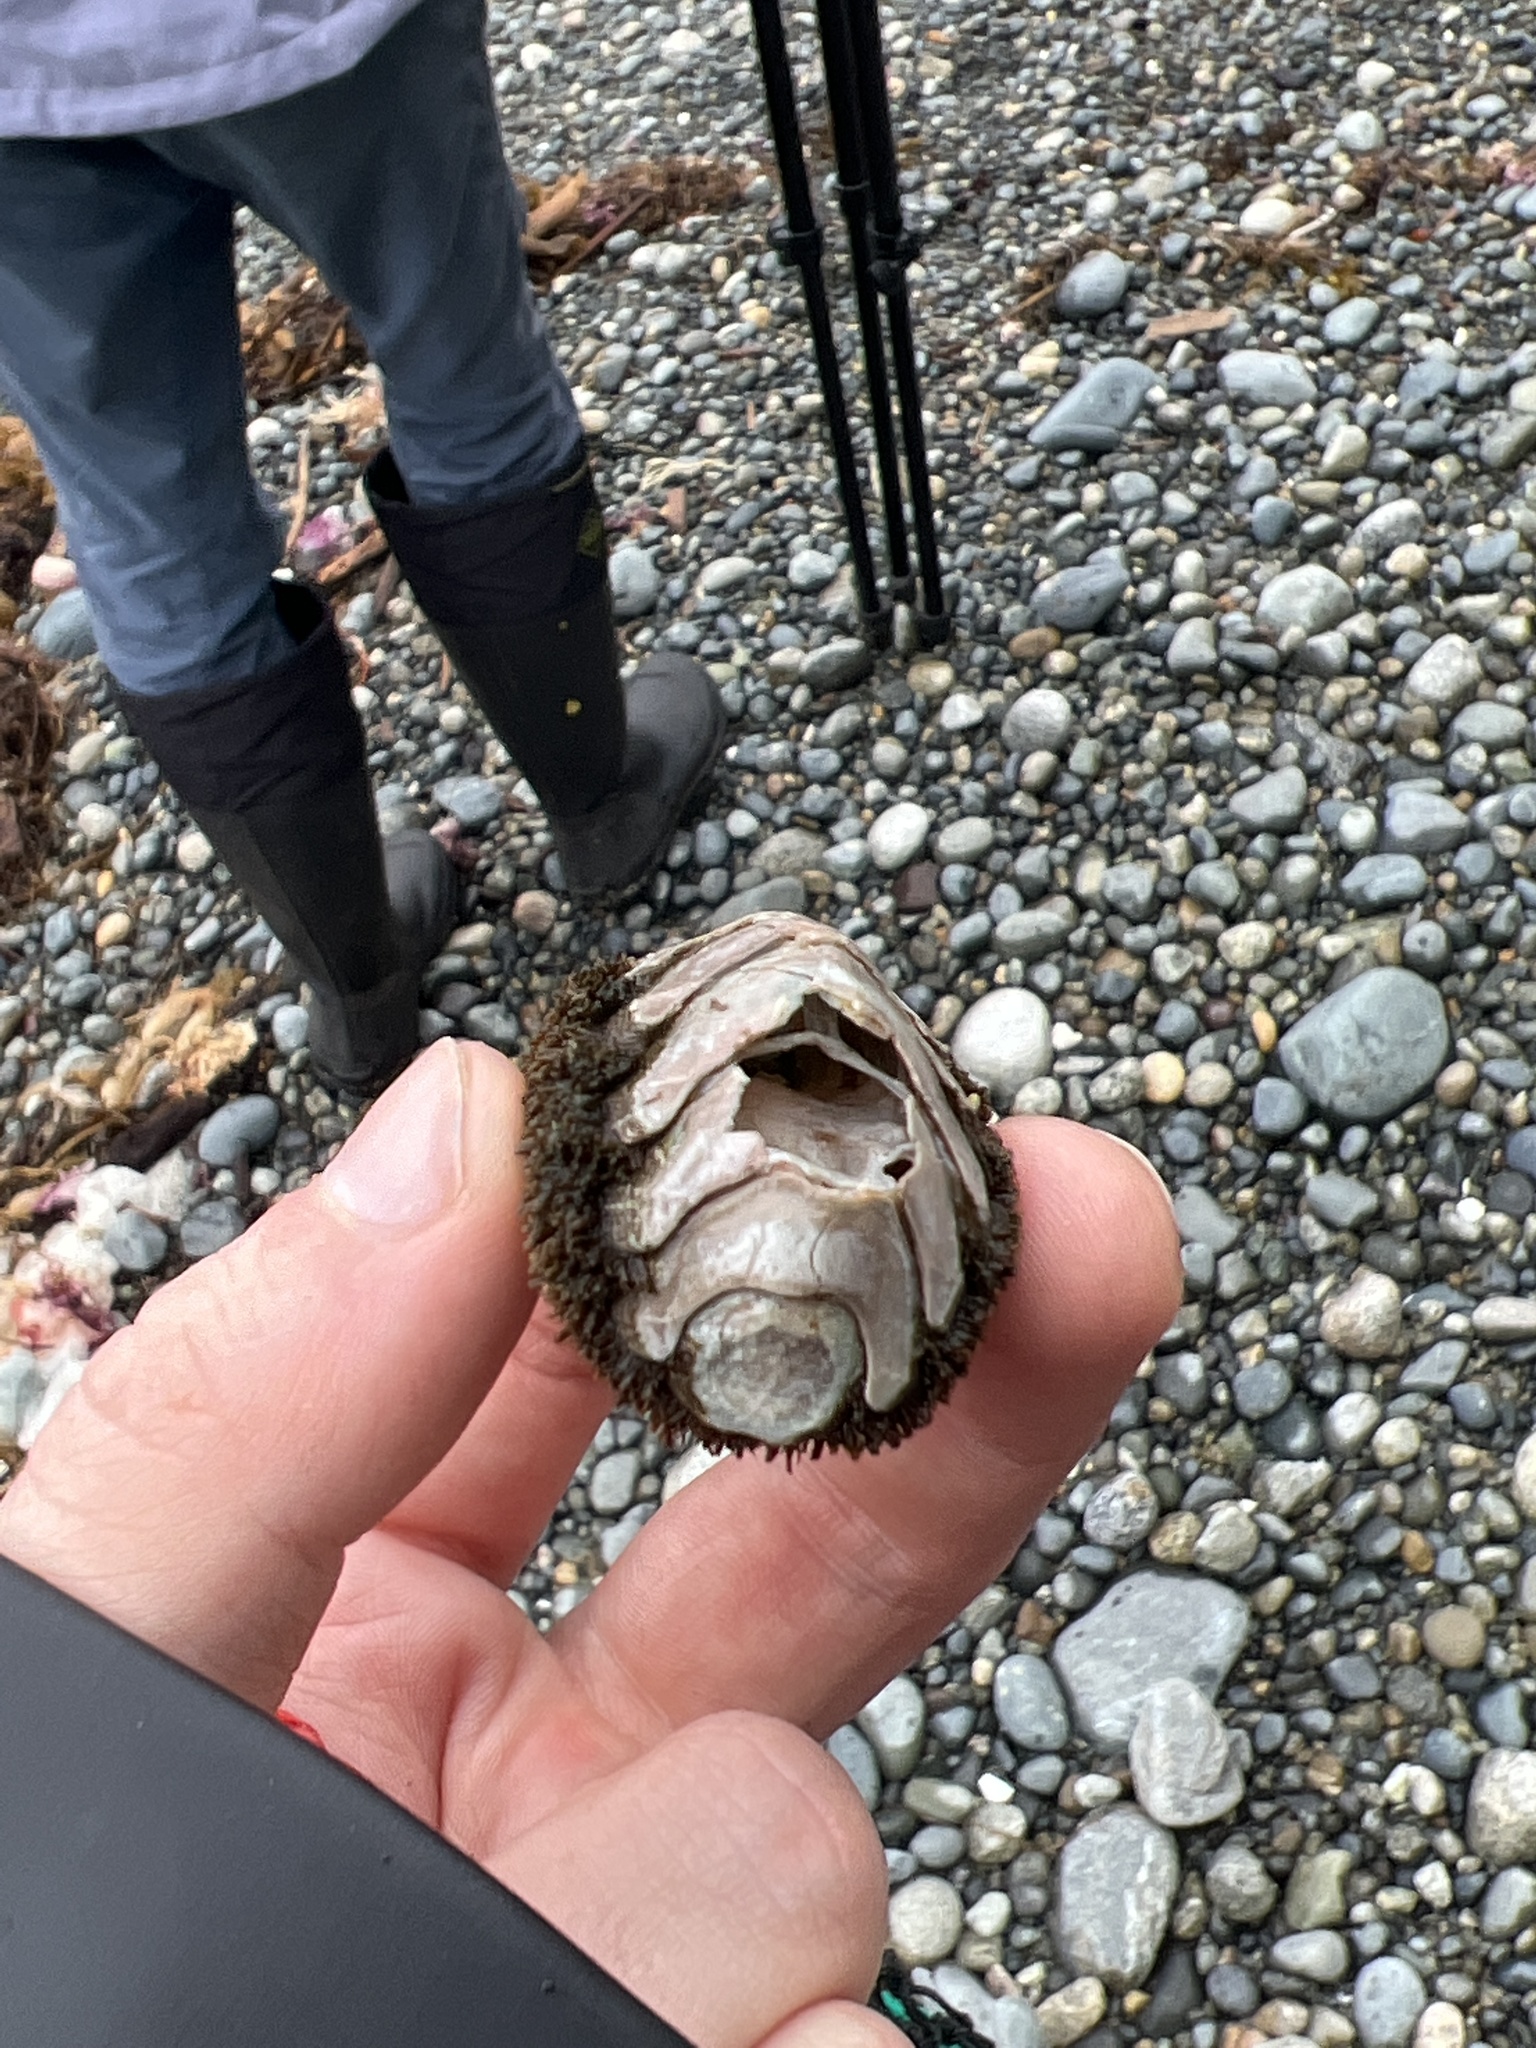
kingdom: Animalia
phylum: Mollusca
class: Polyplacophora
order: Chitonida
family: Mopaliidae
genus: Mopalia
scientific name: Mopalia muscosa
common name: Mossy chiton
